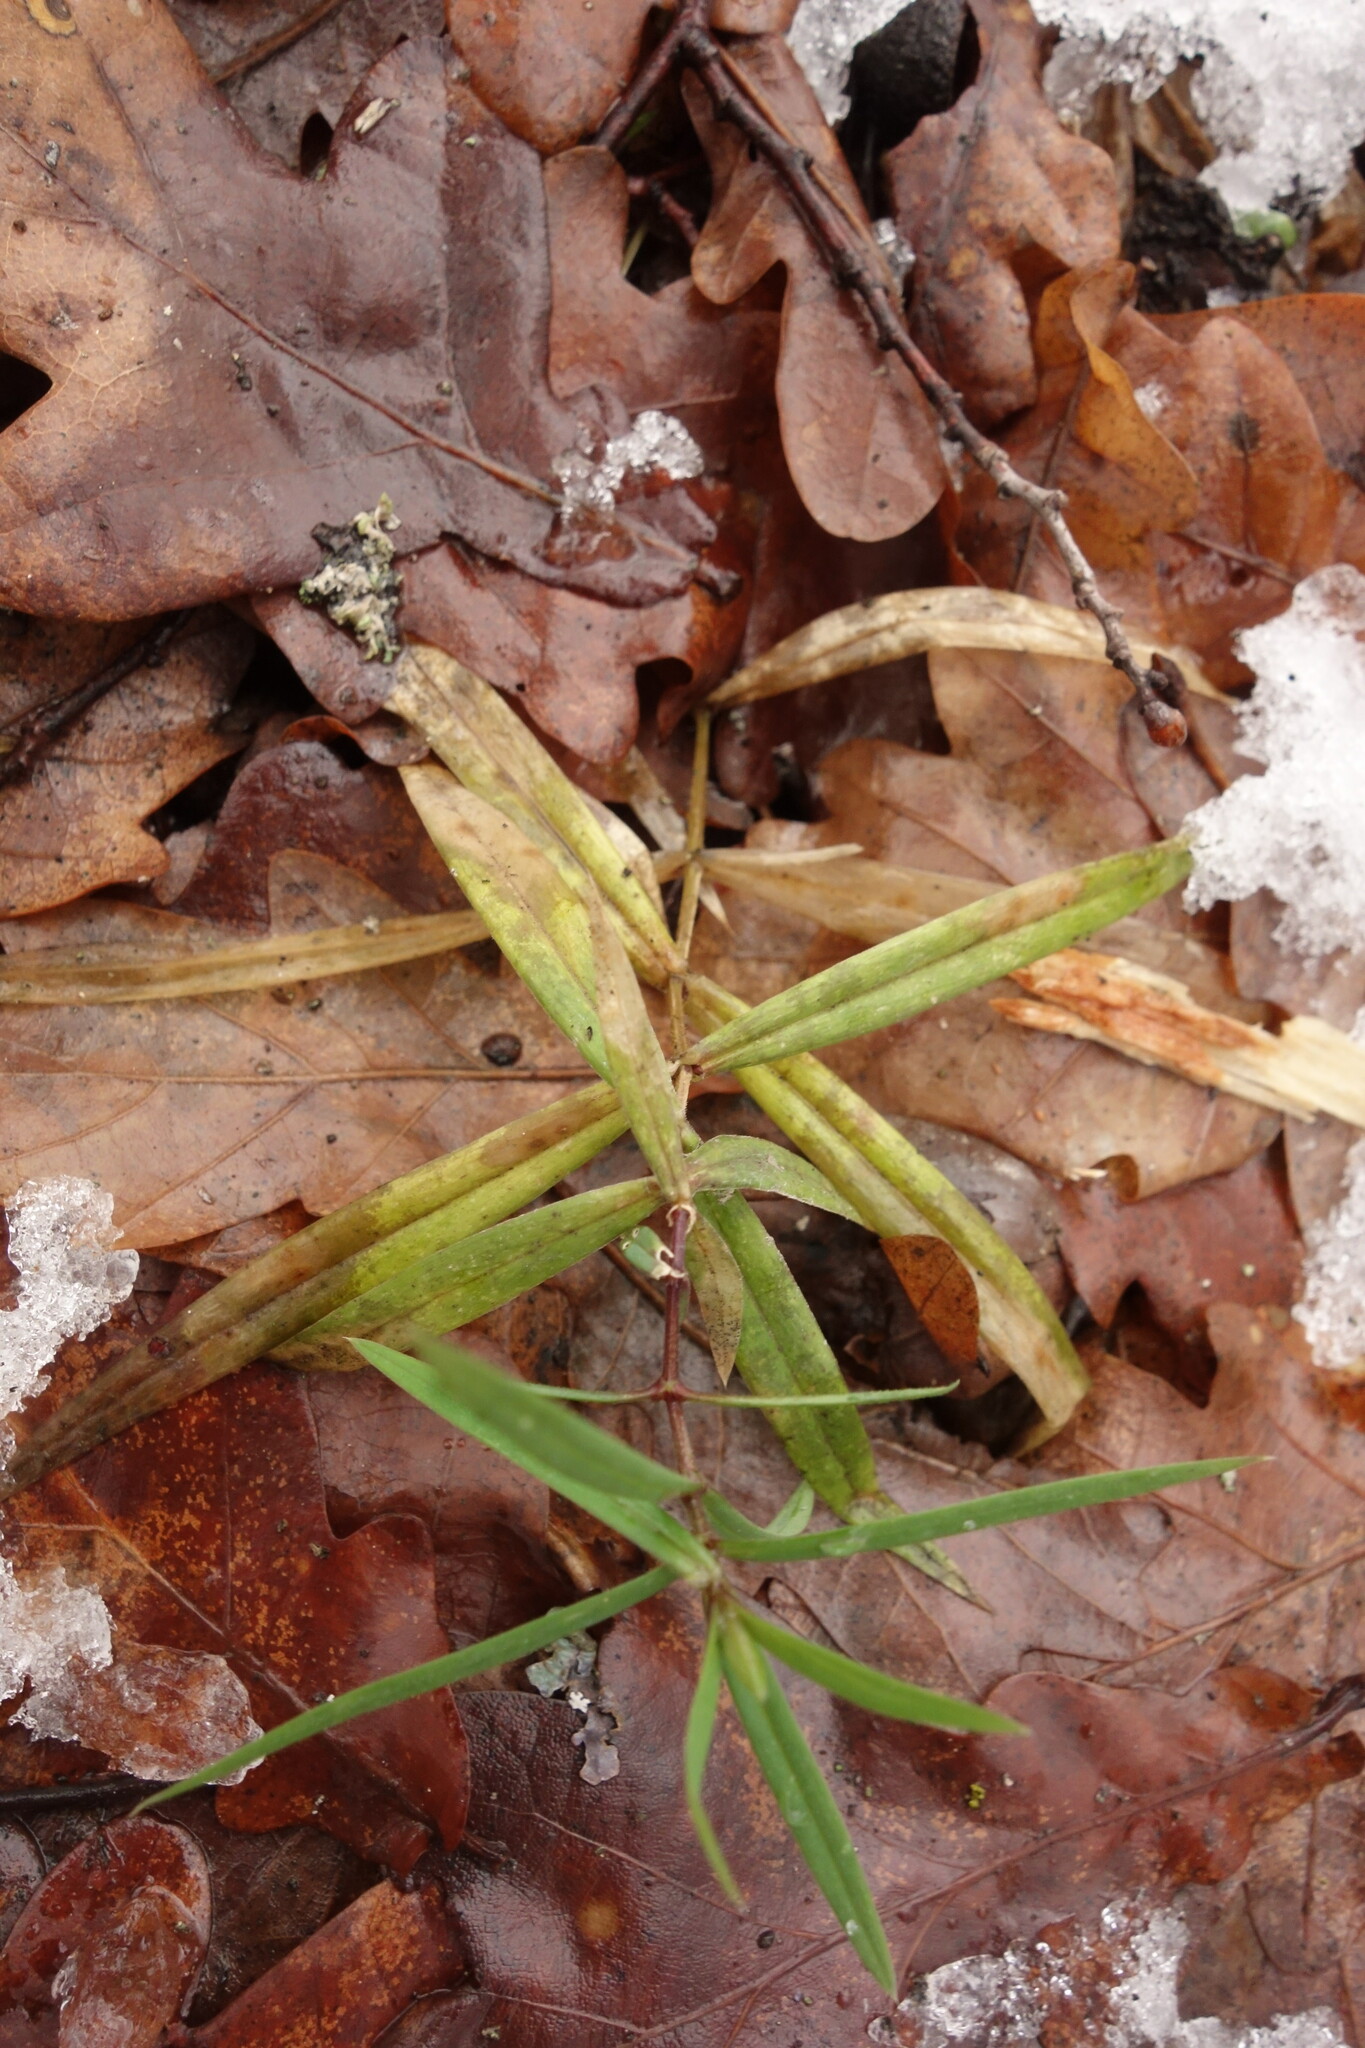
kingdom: Plantae
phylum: Tracheophyta
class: Magnoliopsida
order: Caryophyllales
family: Caryophyllaceae
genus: Rabelera
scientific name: Rabelera holostea
